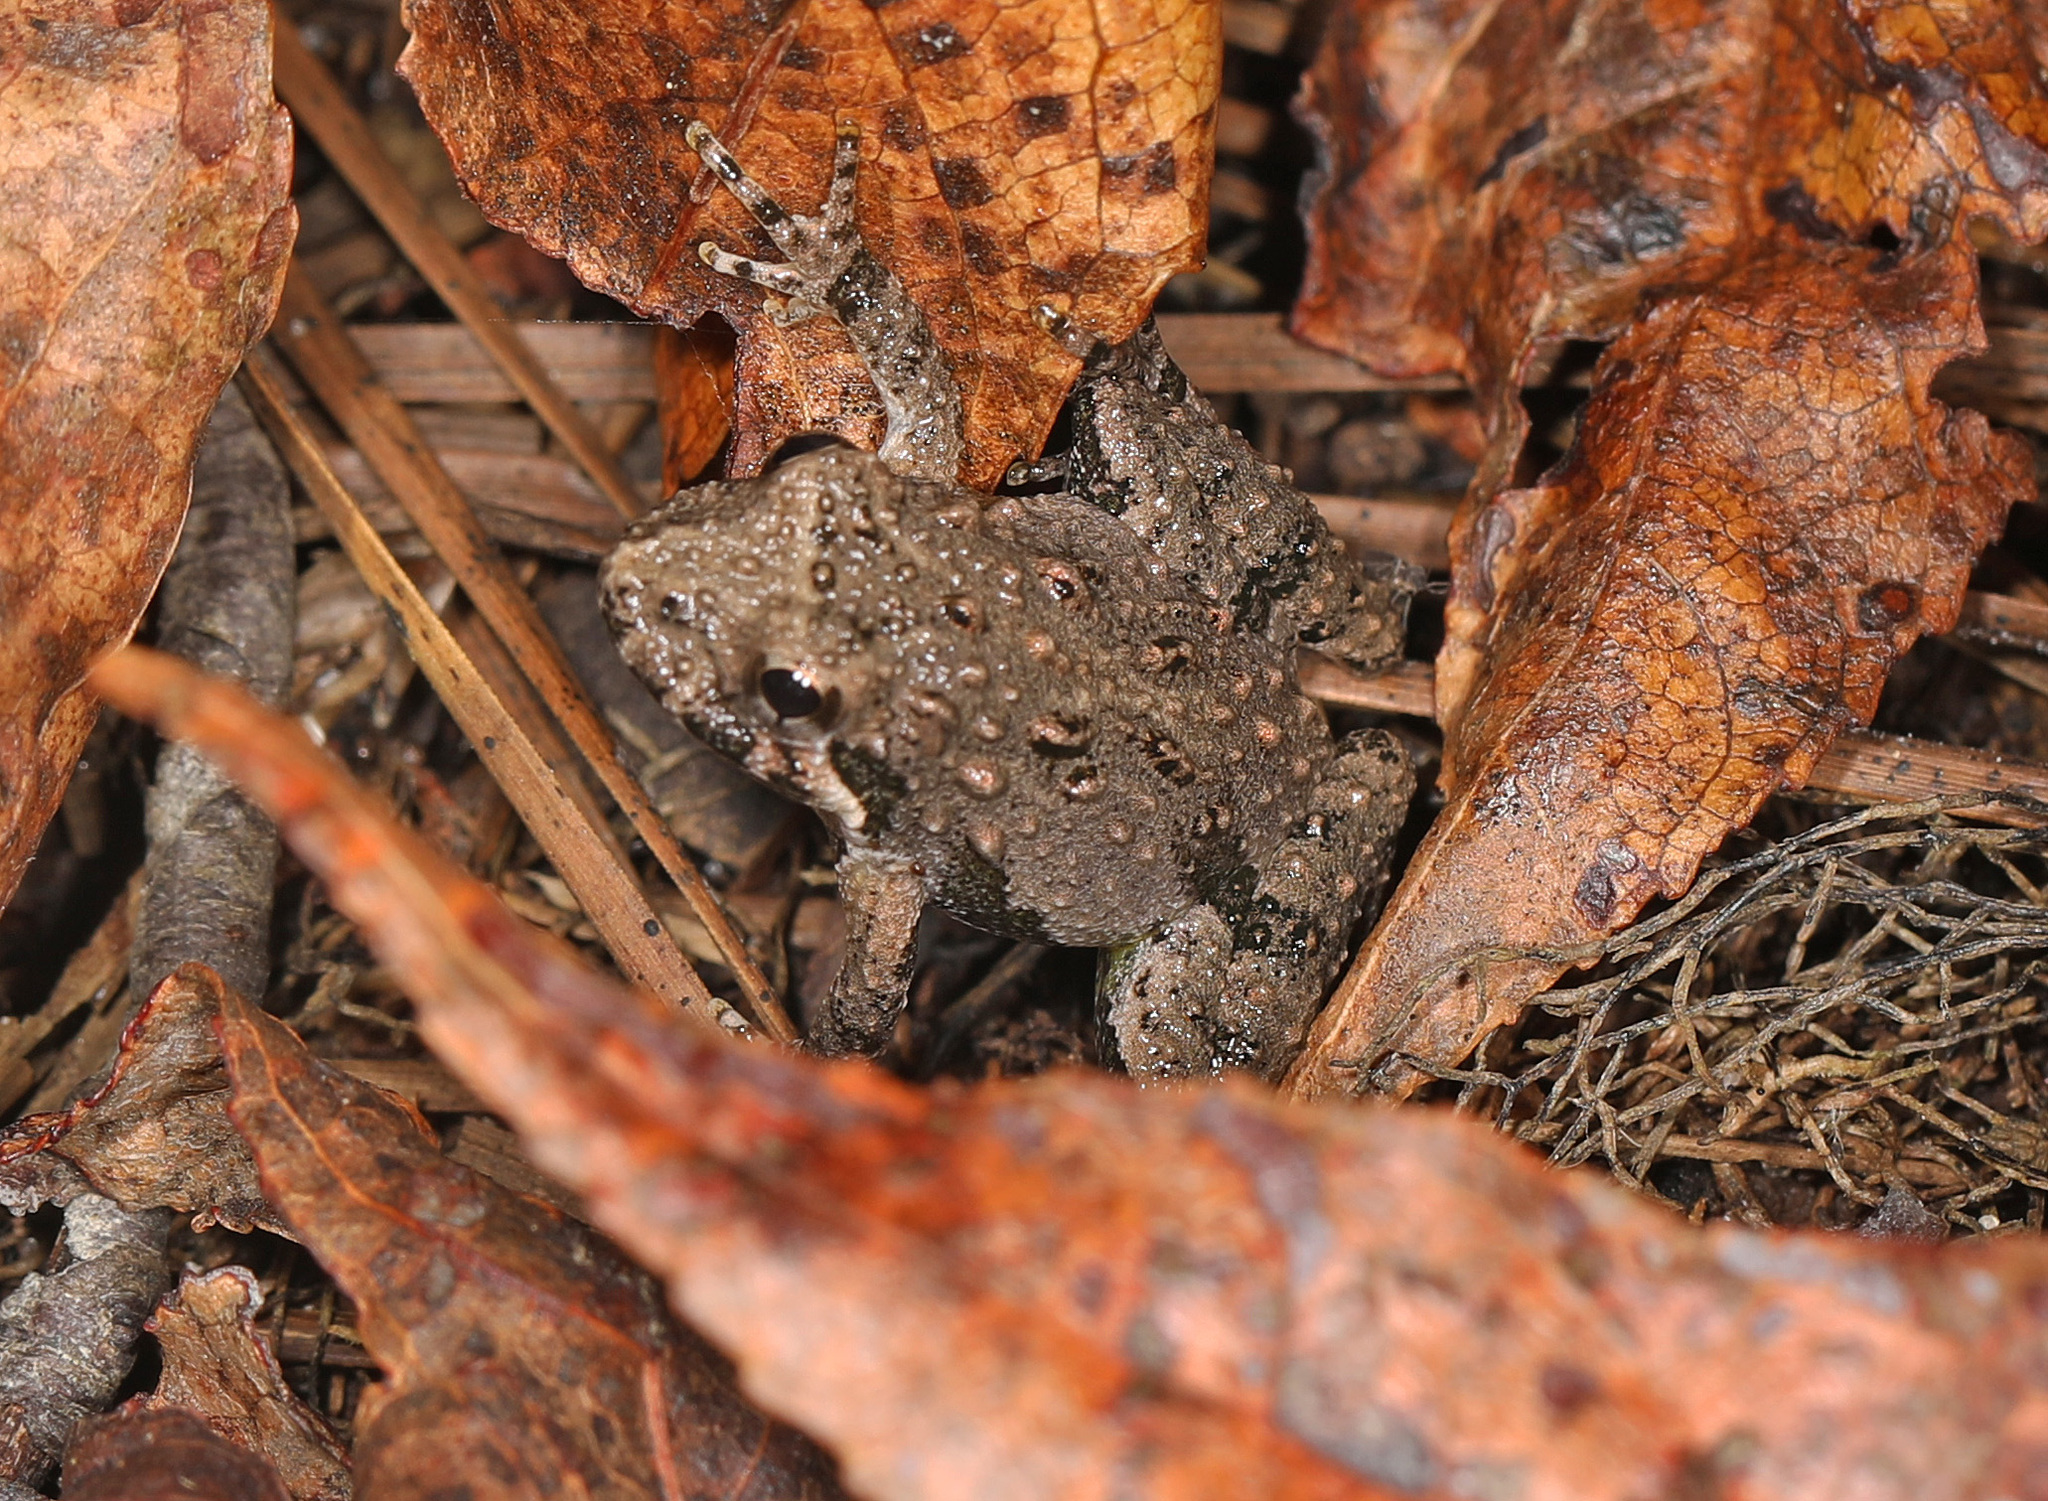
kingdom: Animalia
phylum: Chordata
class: Amphibia
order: Anura
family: Hylidae
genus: Acris
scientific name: Acris crepitans
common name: Northern cricket frog
